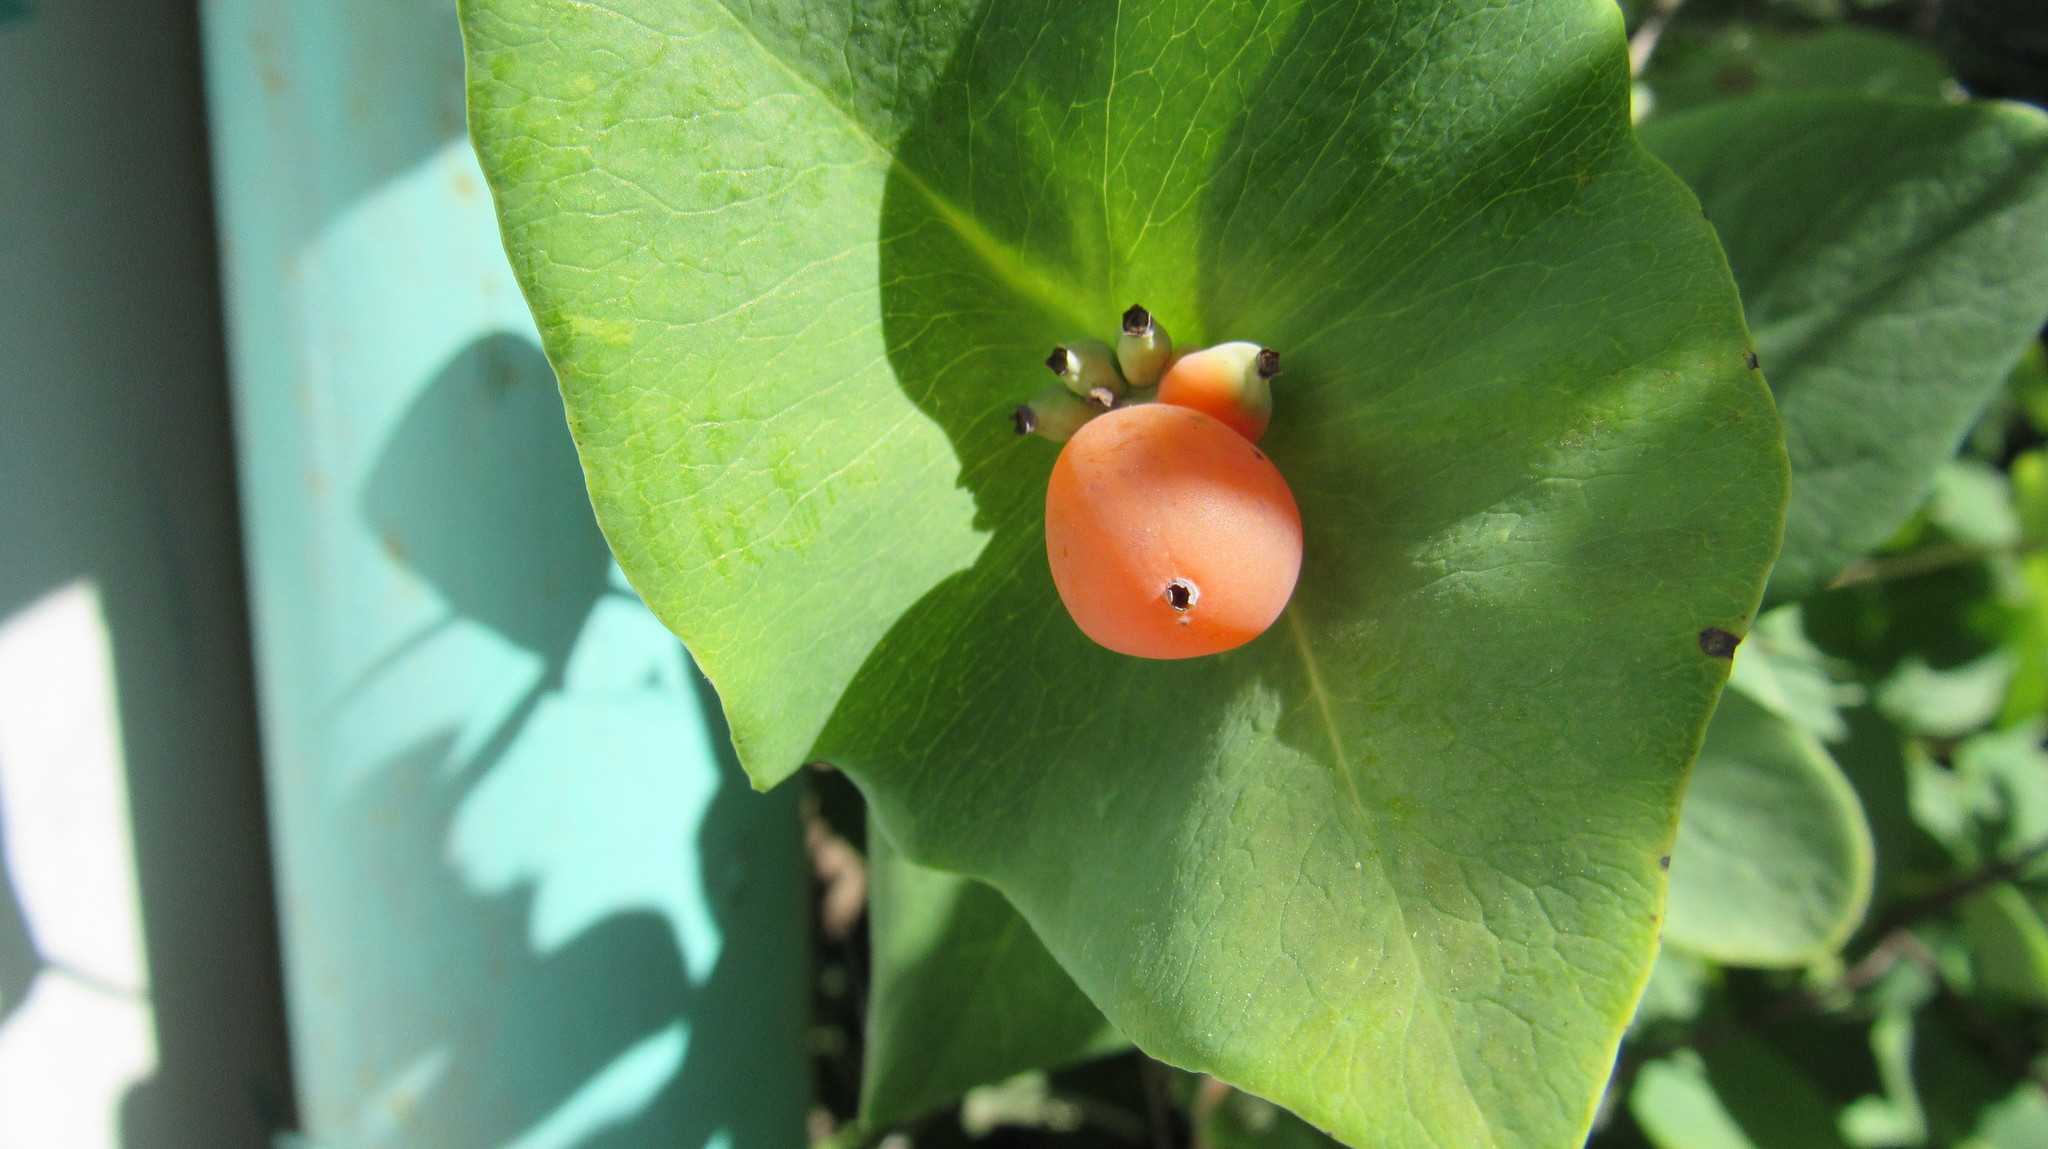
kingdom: Plantae
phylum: Tracheophyta
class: Magnoliopsida
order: Dipsacales
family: Caprifoliaceae
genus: Lonicera
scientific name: Lonicera caprifolium
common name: Perfoliate honeysuckle
